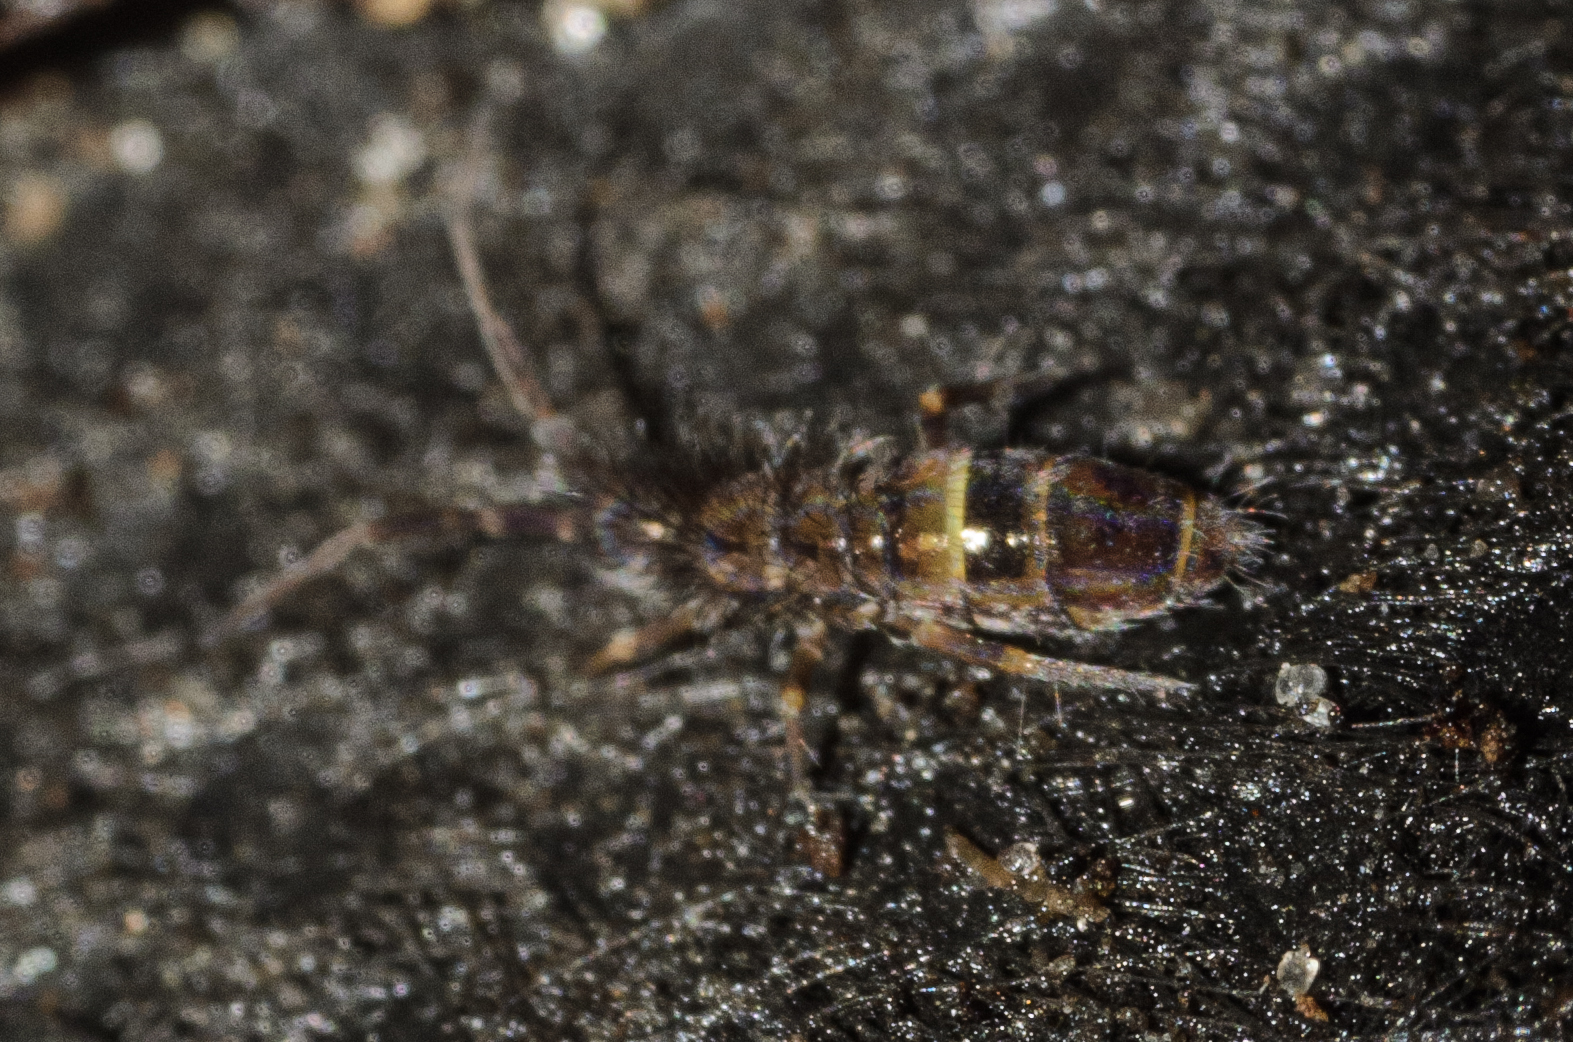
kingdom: Animalia
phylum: Arthropoda
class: Collembola
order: Entomobryomorpha
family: Orchesellidae
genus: Orchesella
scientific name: Orchesella cincta
